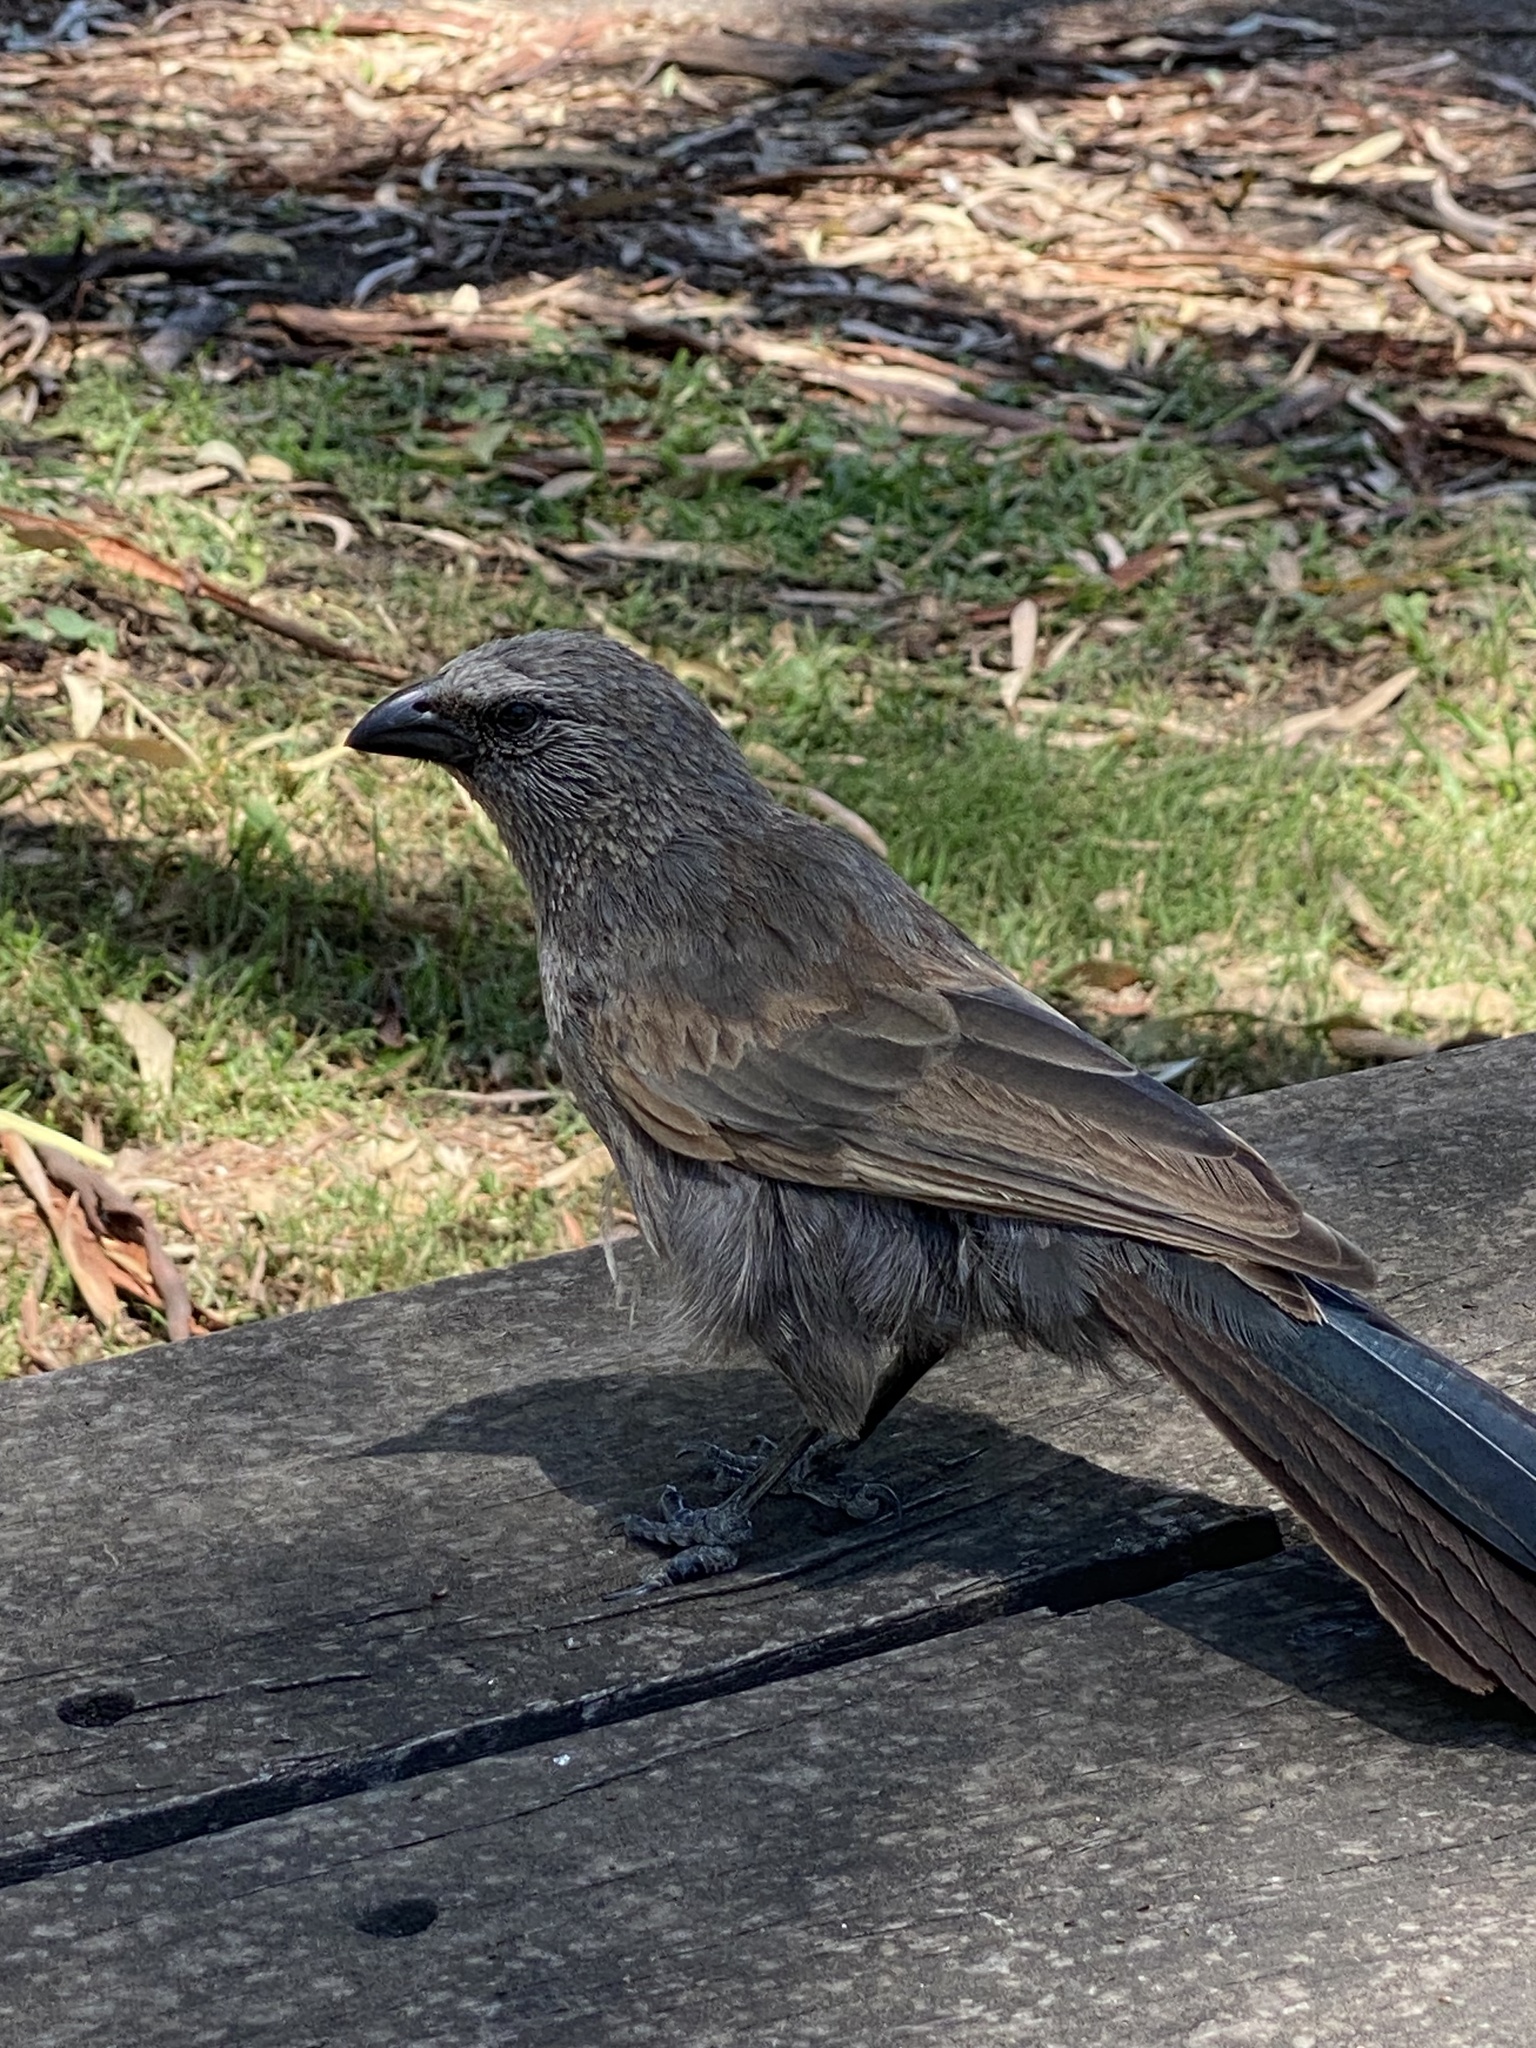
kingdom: Animalia
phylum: Chordata
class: Aves
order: Passeriformes
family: Corcoracidae
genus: Struthidea
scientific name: Struthidea cinerea
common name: Apostlebird
